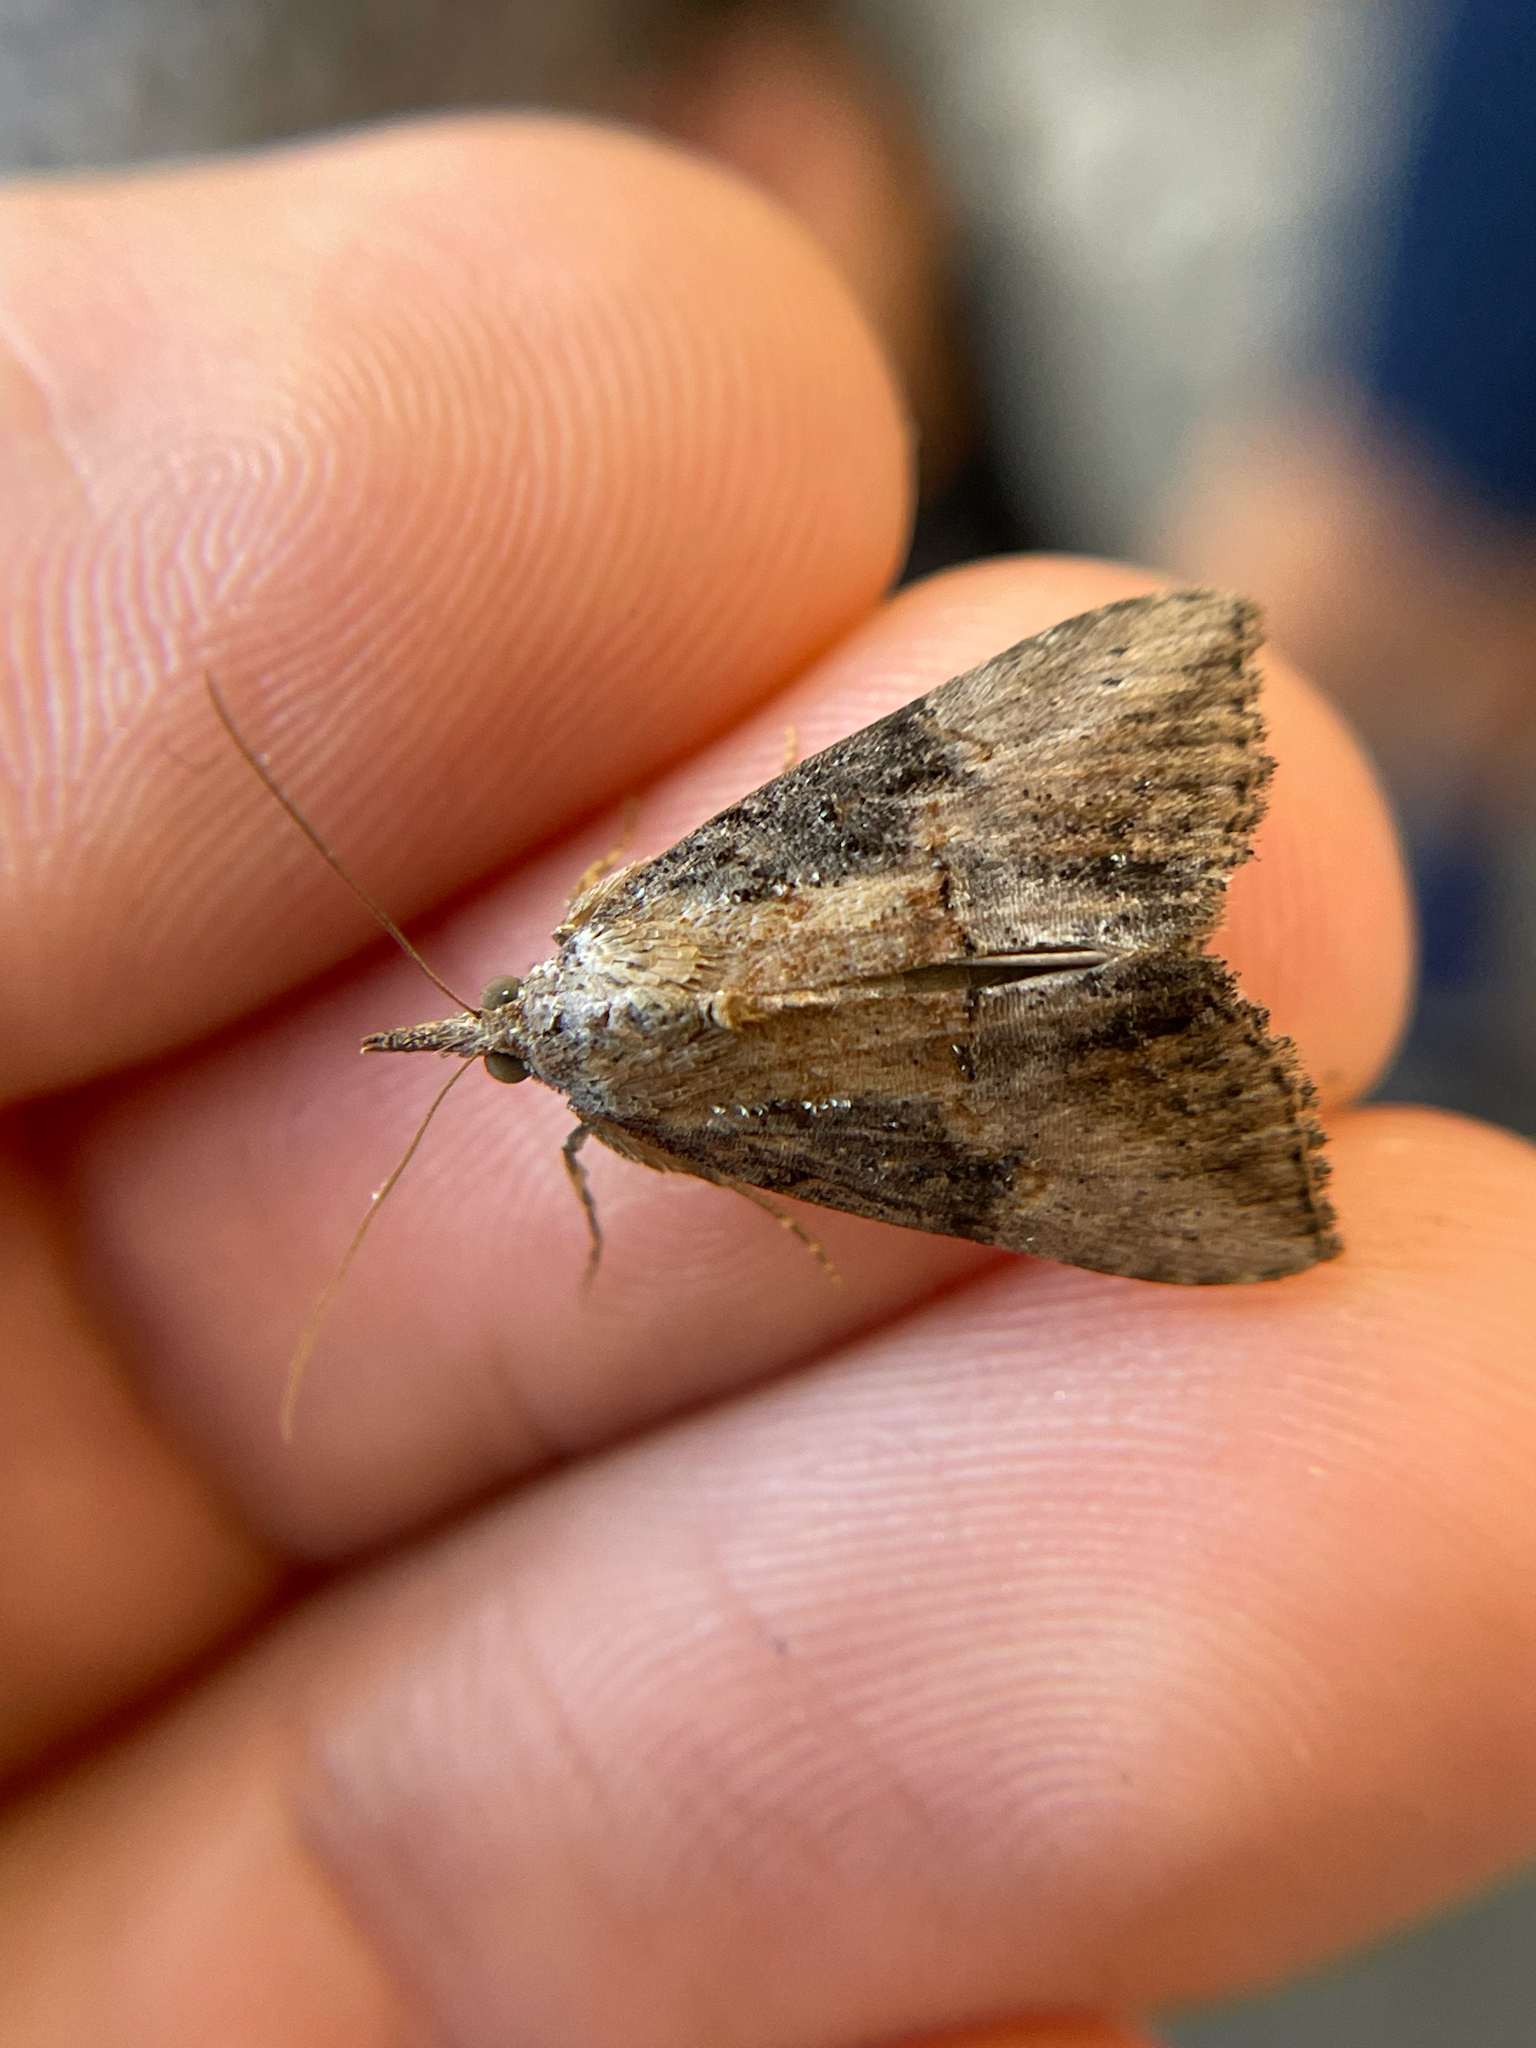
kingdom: Animalia
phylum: Arthropoda
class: Insecta
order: Lepidoptera
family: Erebidae
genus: Hypena
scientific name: Hypena scabra
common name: Green cloverworm
